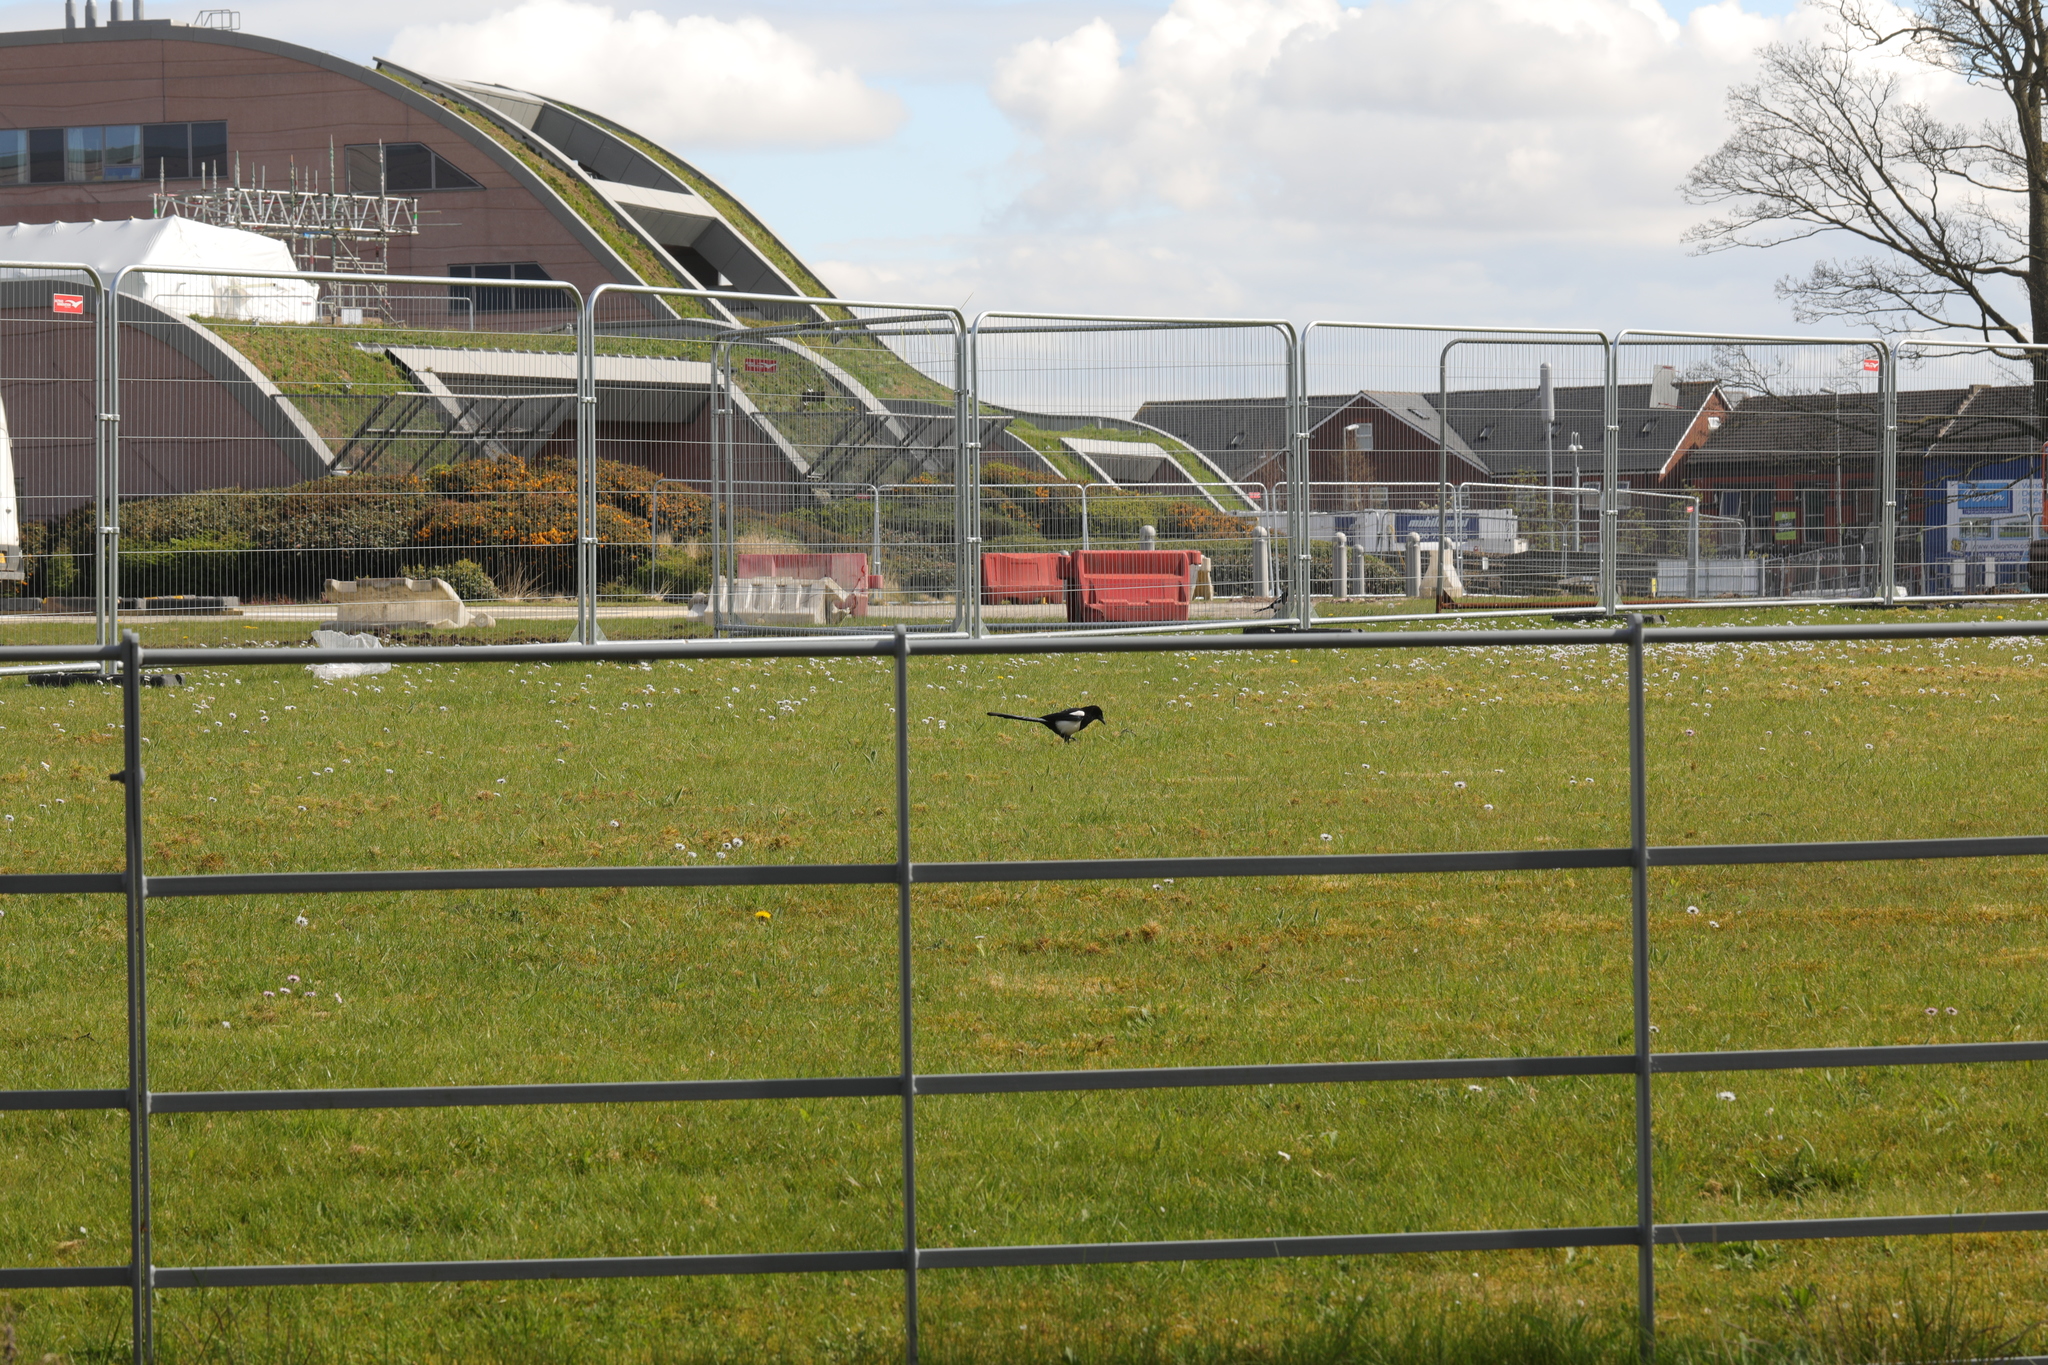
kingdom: Animalia
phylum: Chordata
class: Aves
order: Passeriformes
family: Corvidae
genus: Pica
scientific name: Pica pica
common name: Eurasian magpie
